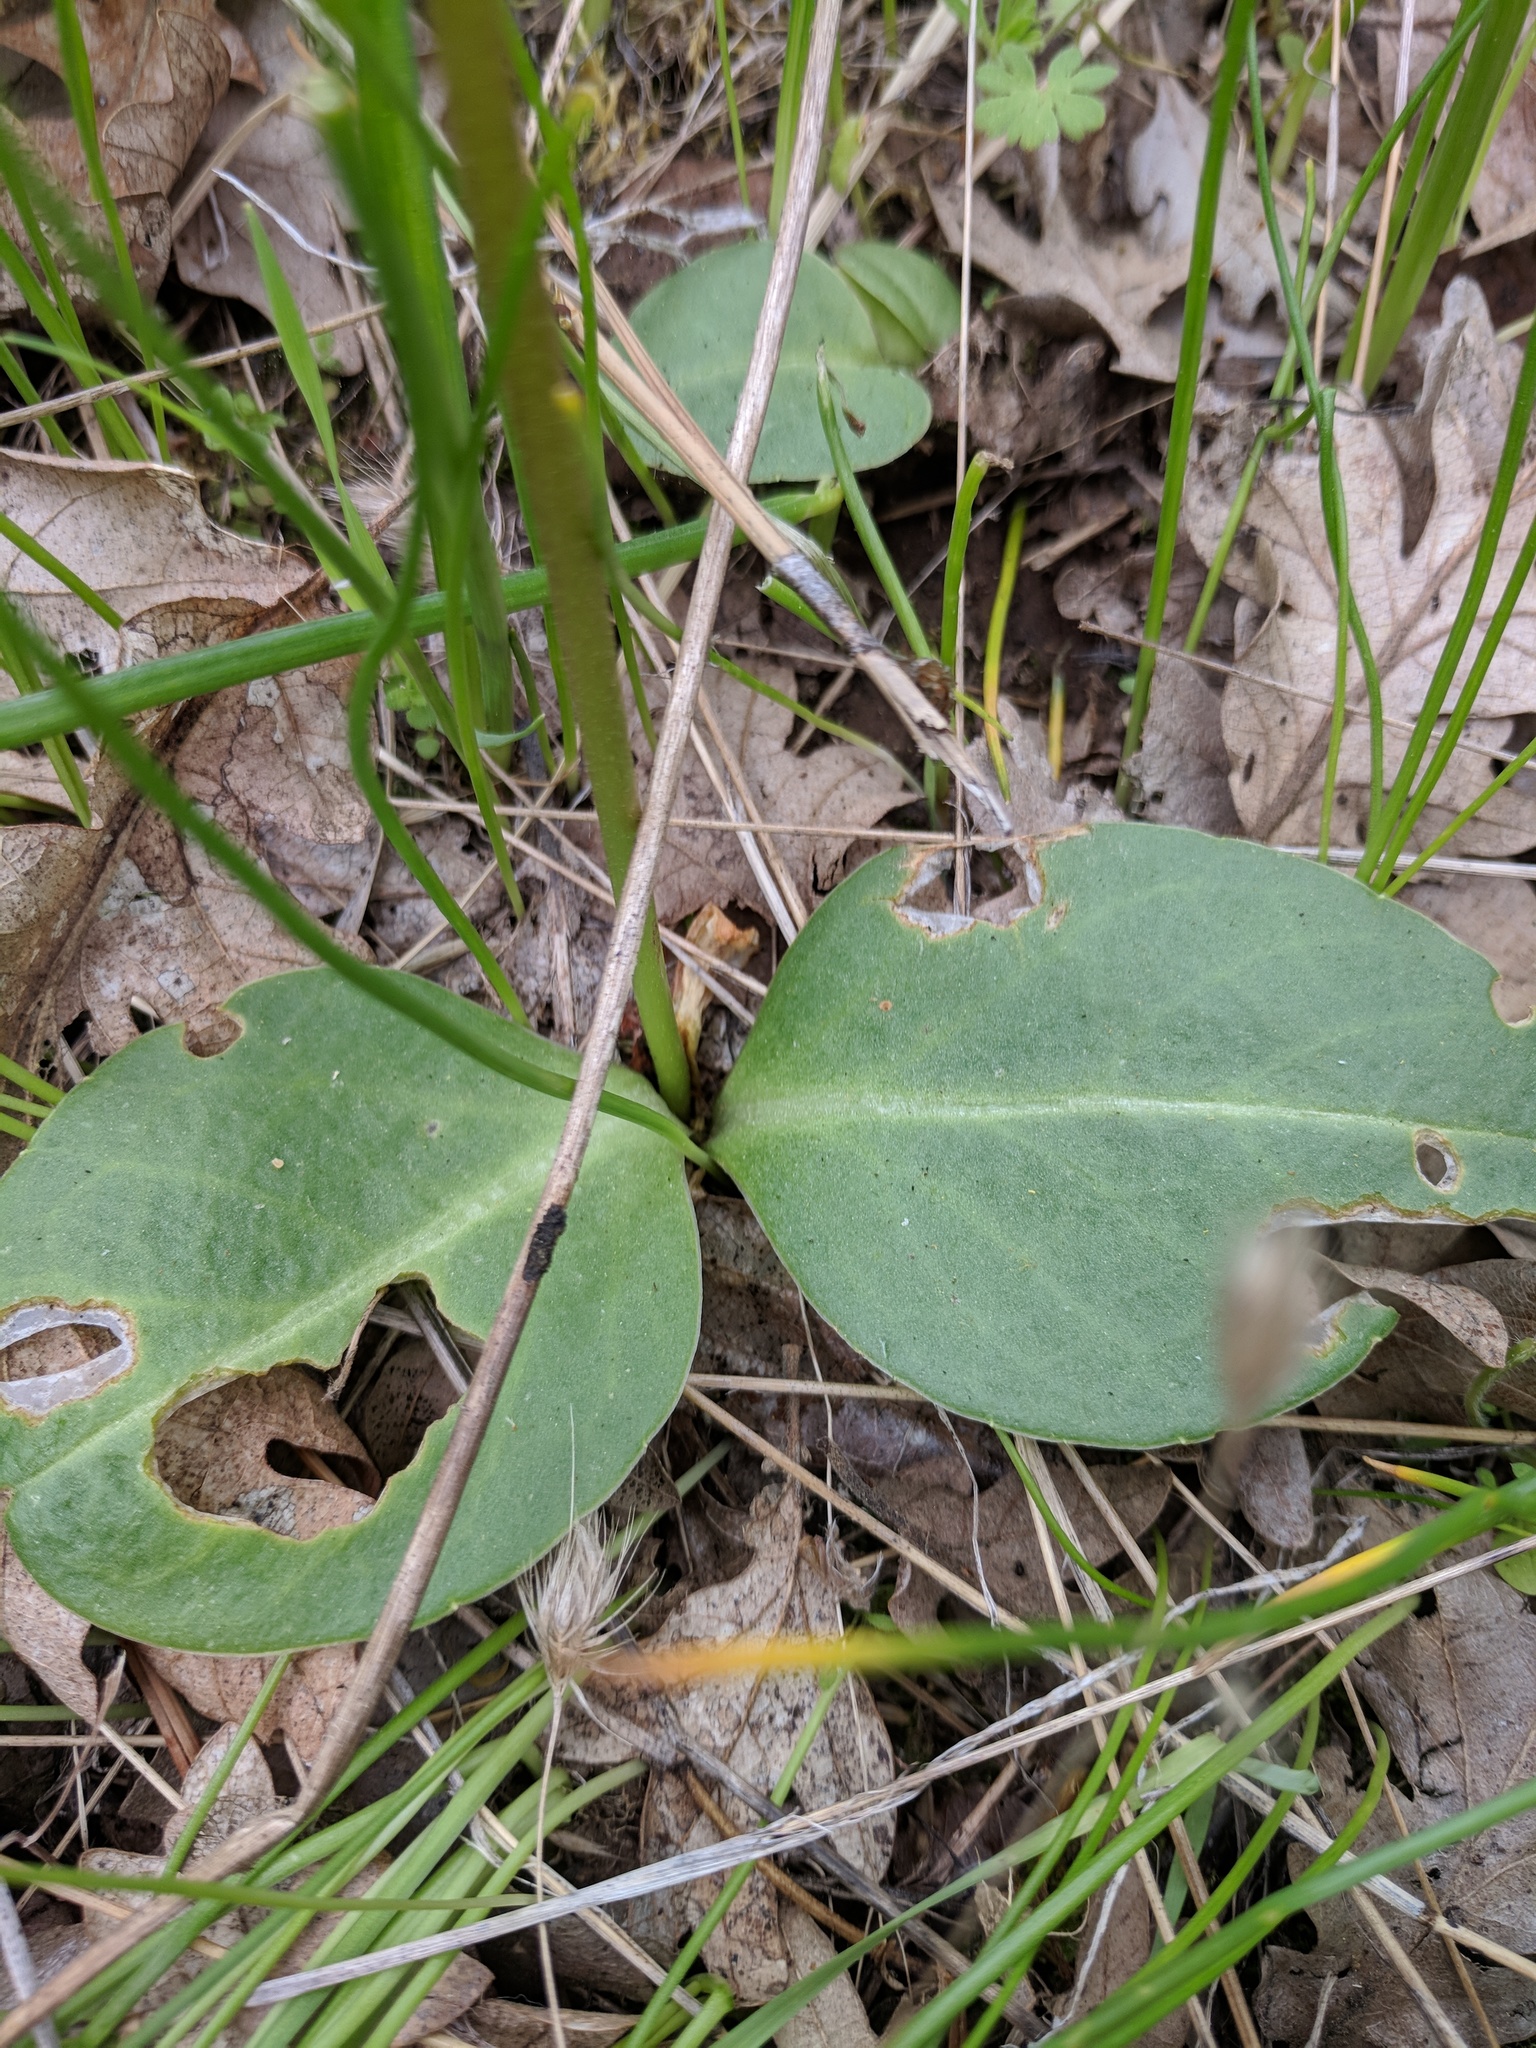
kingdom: Plantae
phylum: Tracheophyta
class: Magnoliopsida
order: Ericales
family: Primulaceae
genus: Dodecatheon
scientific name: Dodecatheon hendersonii
